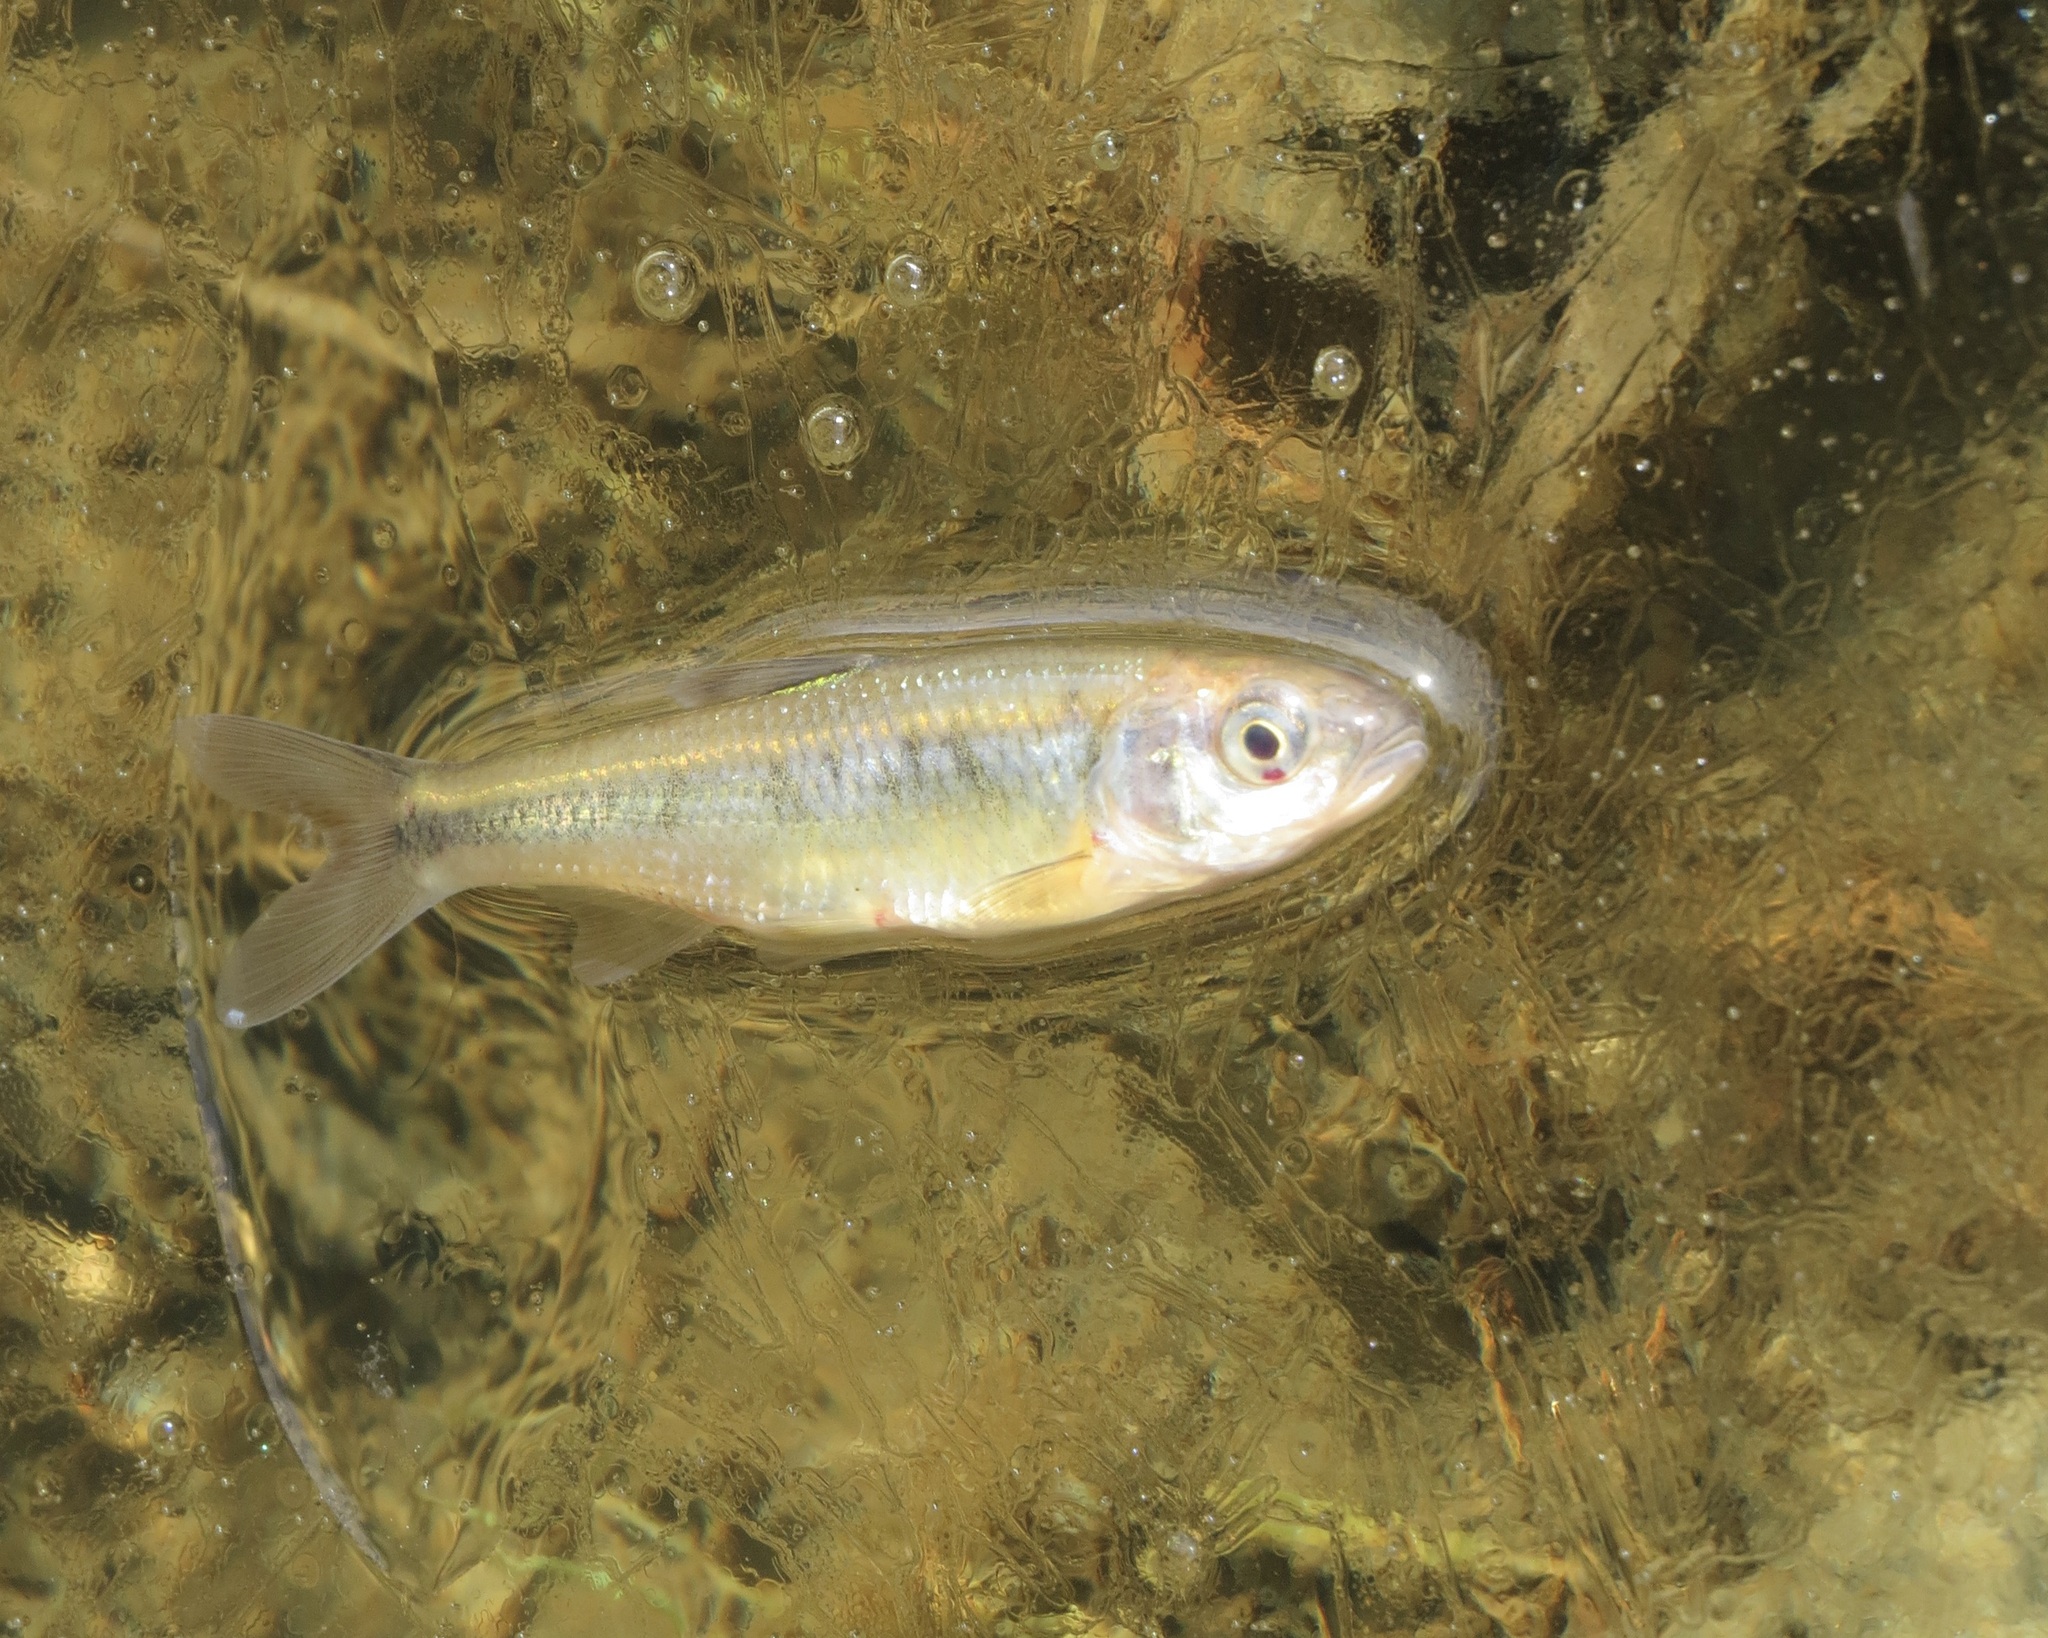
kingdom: Animalia
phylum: Chordata
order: Cypriniformes
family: Cyprinidae
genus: Luxilus
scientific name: Luxilus cornutus
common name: Common shiner
